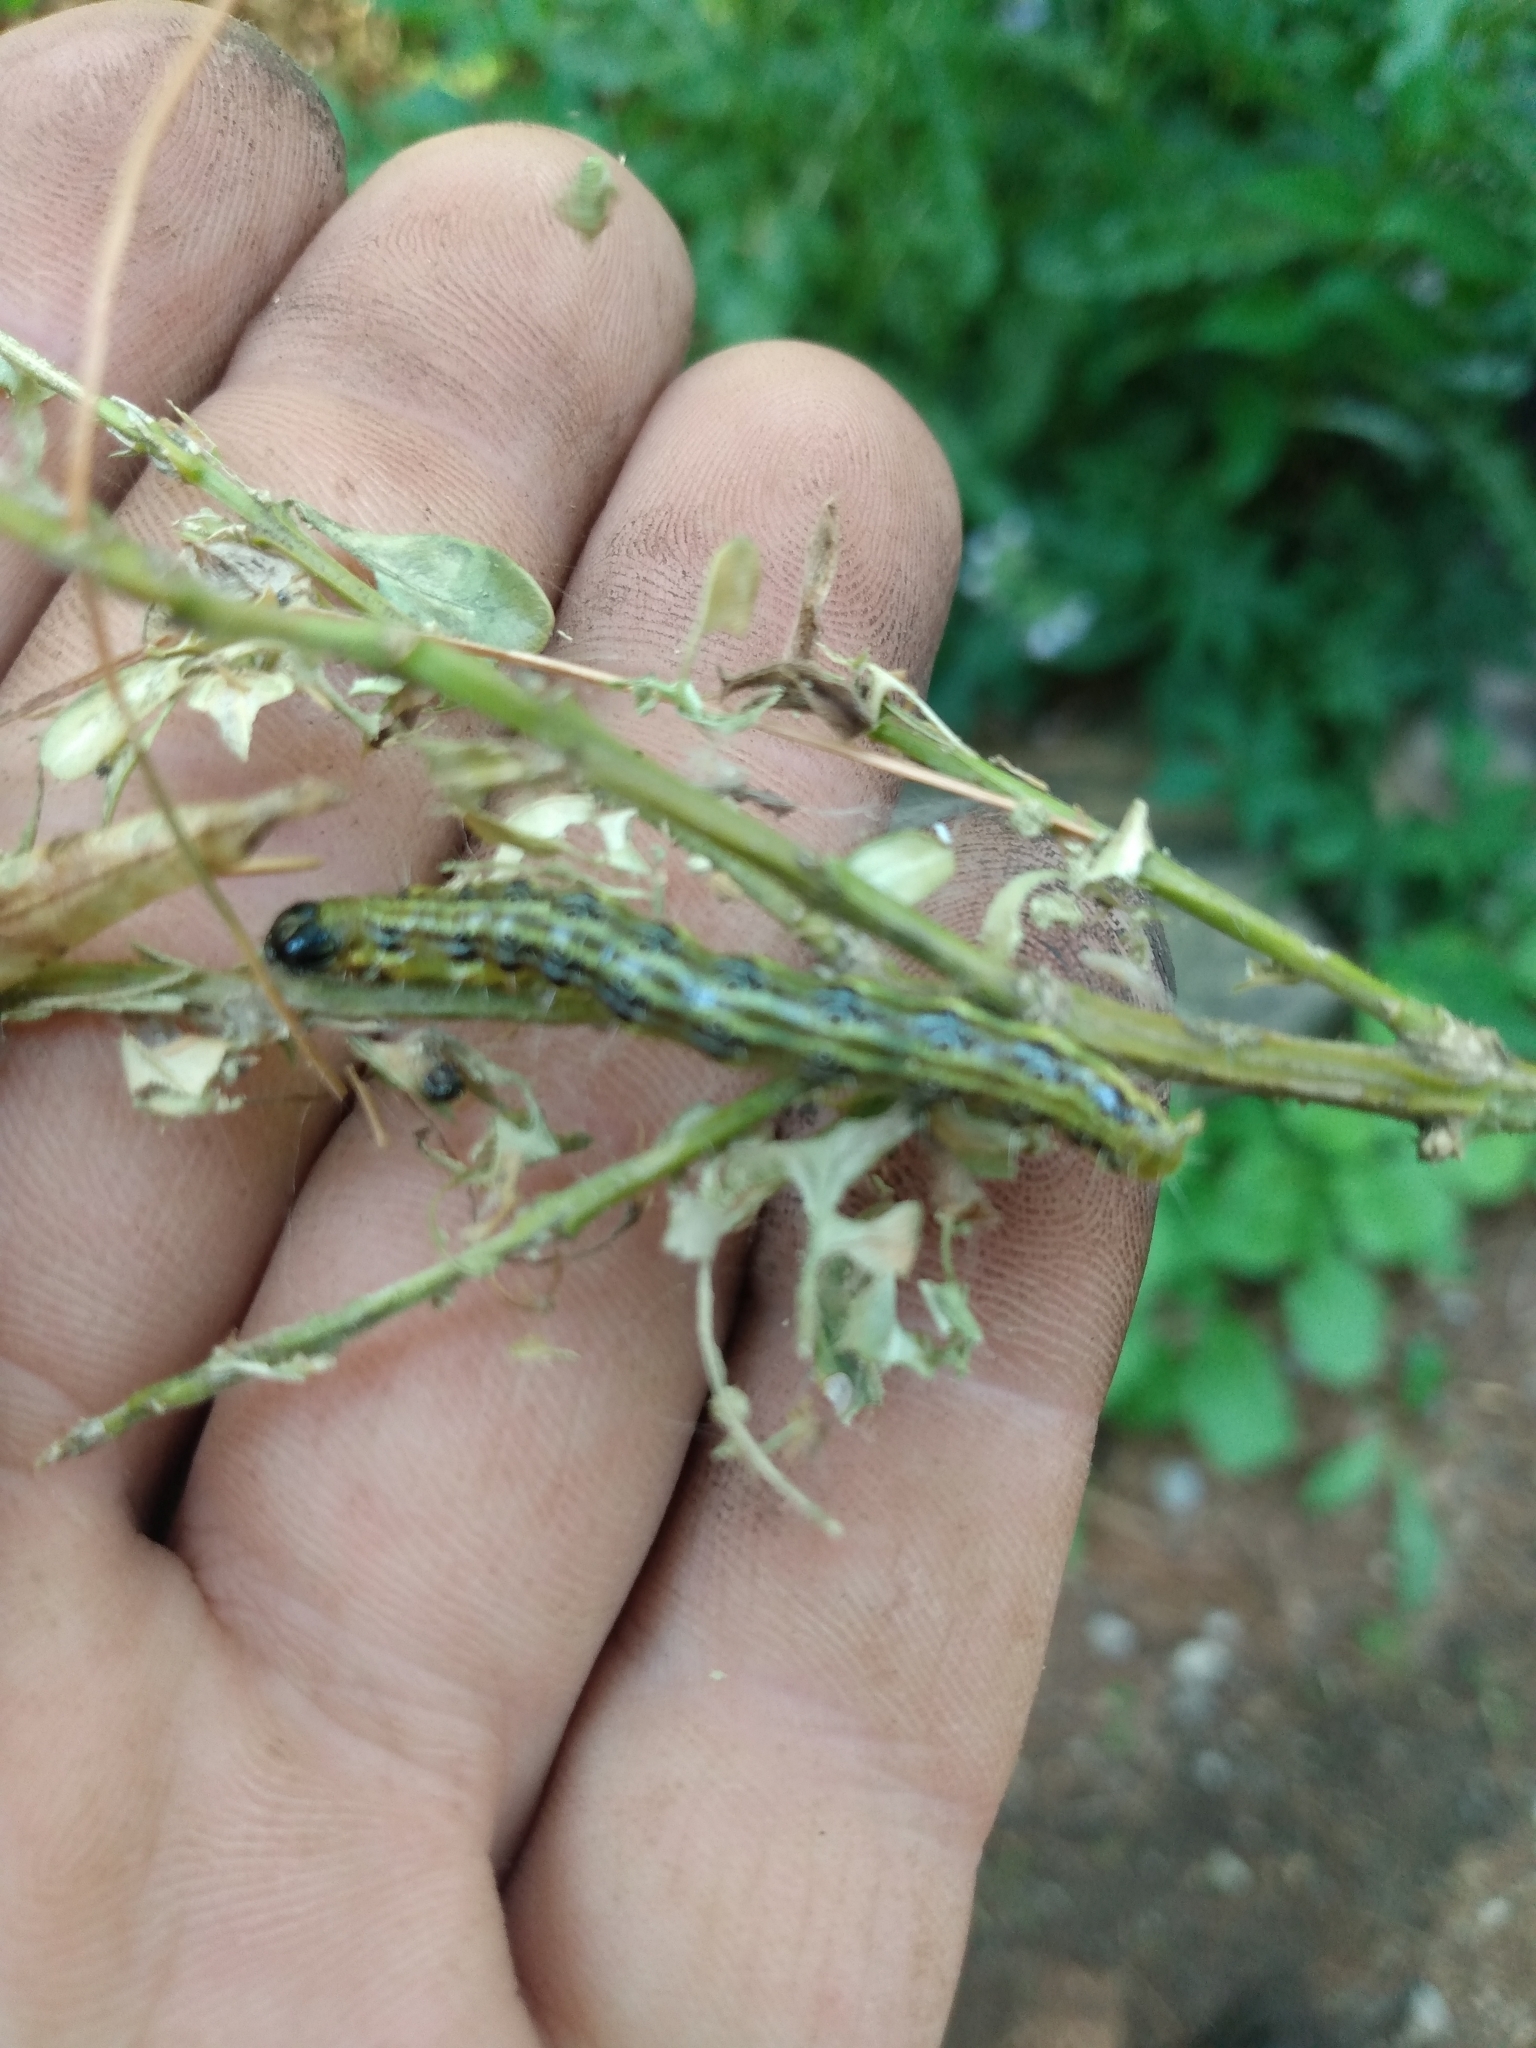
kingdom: Animalia
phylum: Arthropoda
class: Insecta
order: Lepidoptera
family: Crambidae
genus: Cydalima
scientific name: Cydalima perspectalis
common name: Box tree moth
